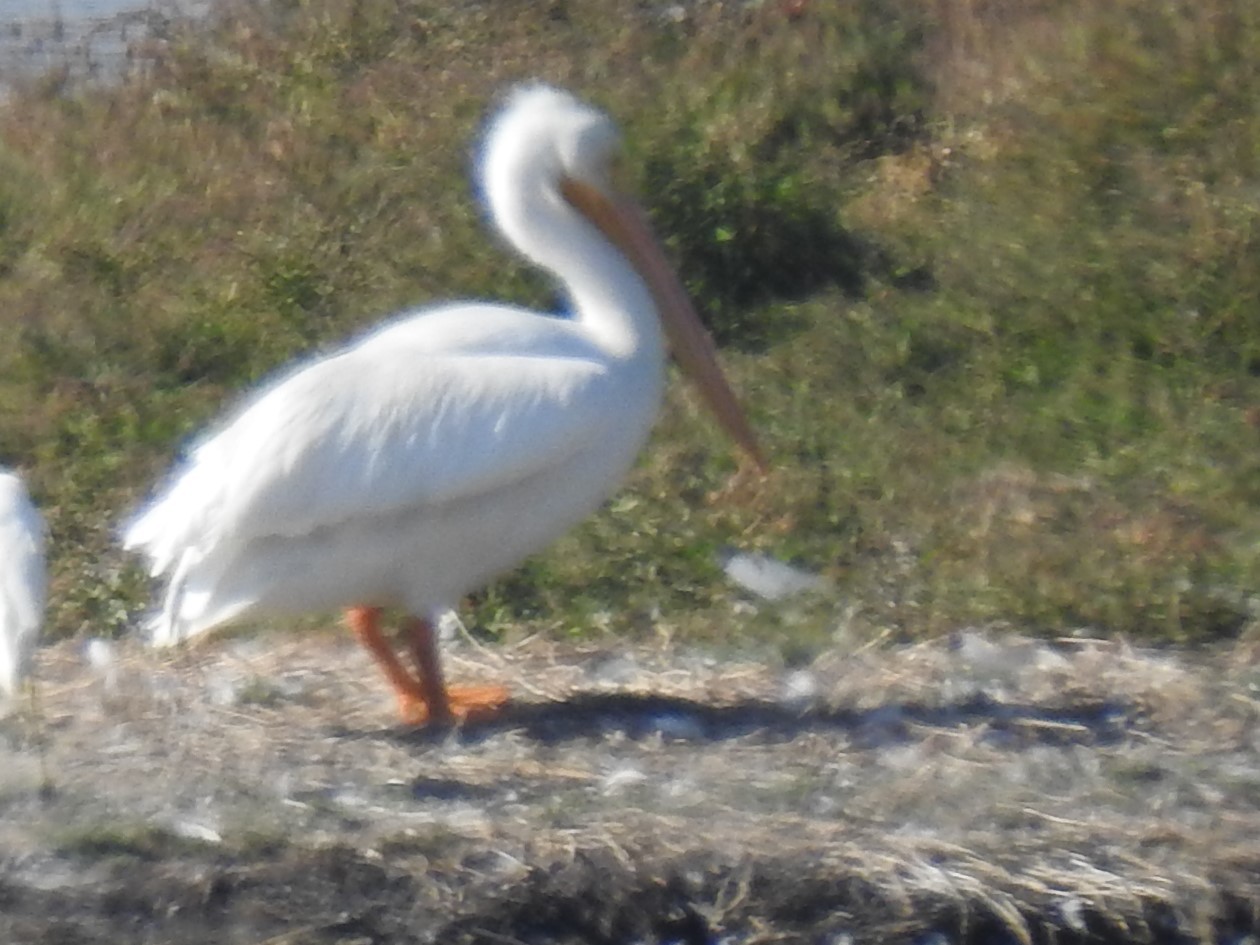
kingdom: Animalia
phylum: Chordata
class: Aves
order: Pelecaniformes
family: Pelecanidae
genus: Pelecanus
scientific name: Pelecanus erythrorhynchos
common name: American white pelican
